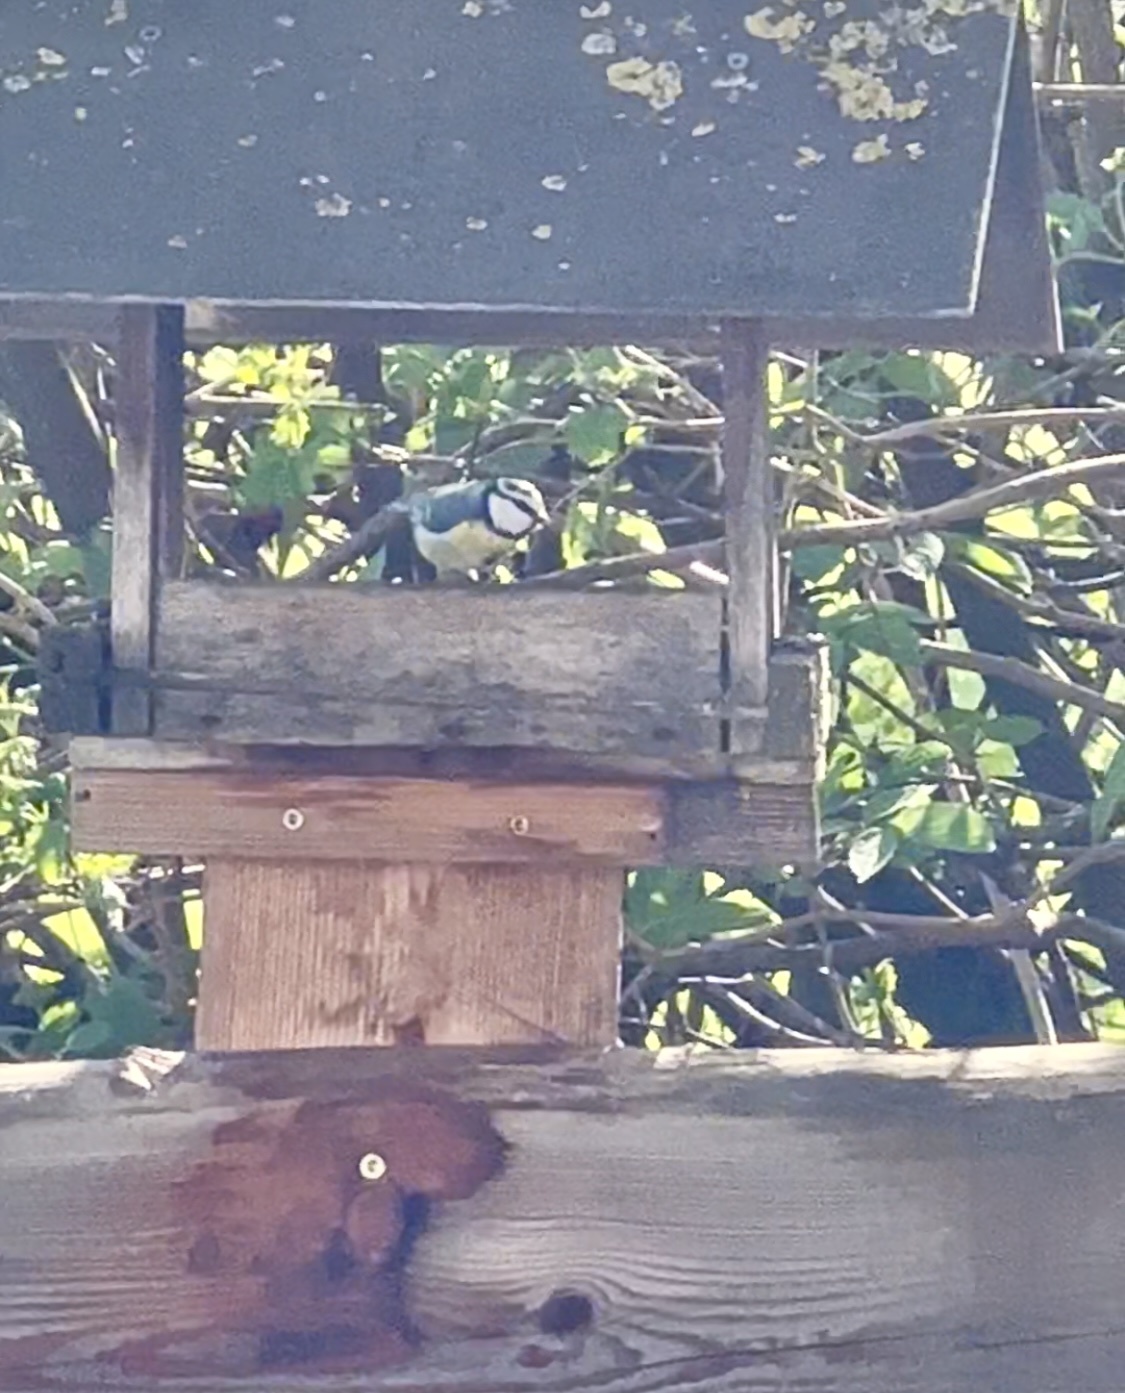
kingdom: Animalia
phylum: Chordata
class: Aves
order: Passeriformes
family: Paridae
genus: Cyanistes
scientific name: Cyanistes caeruleus
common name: Eurasian blue tit
